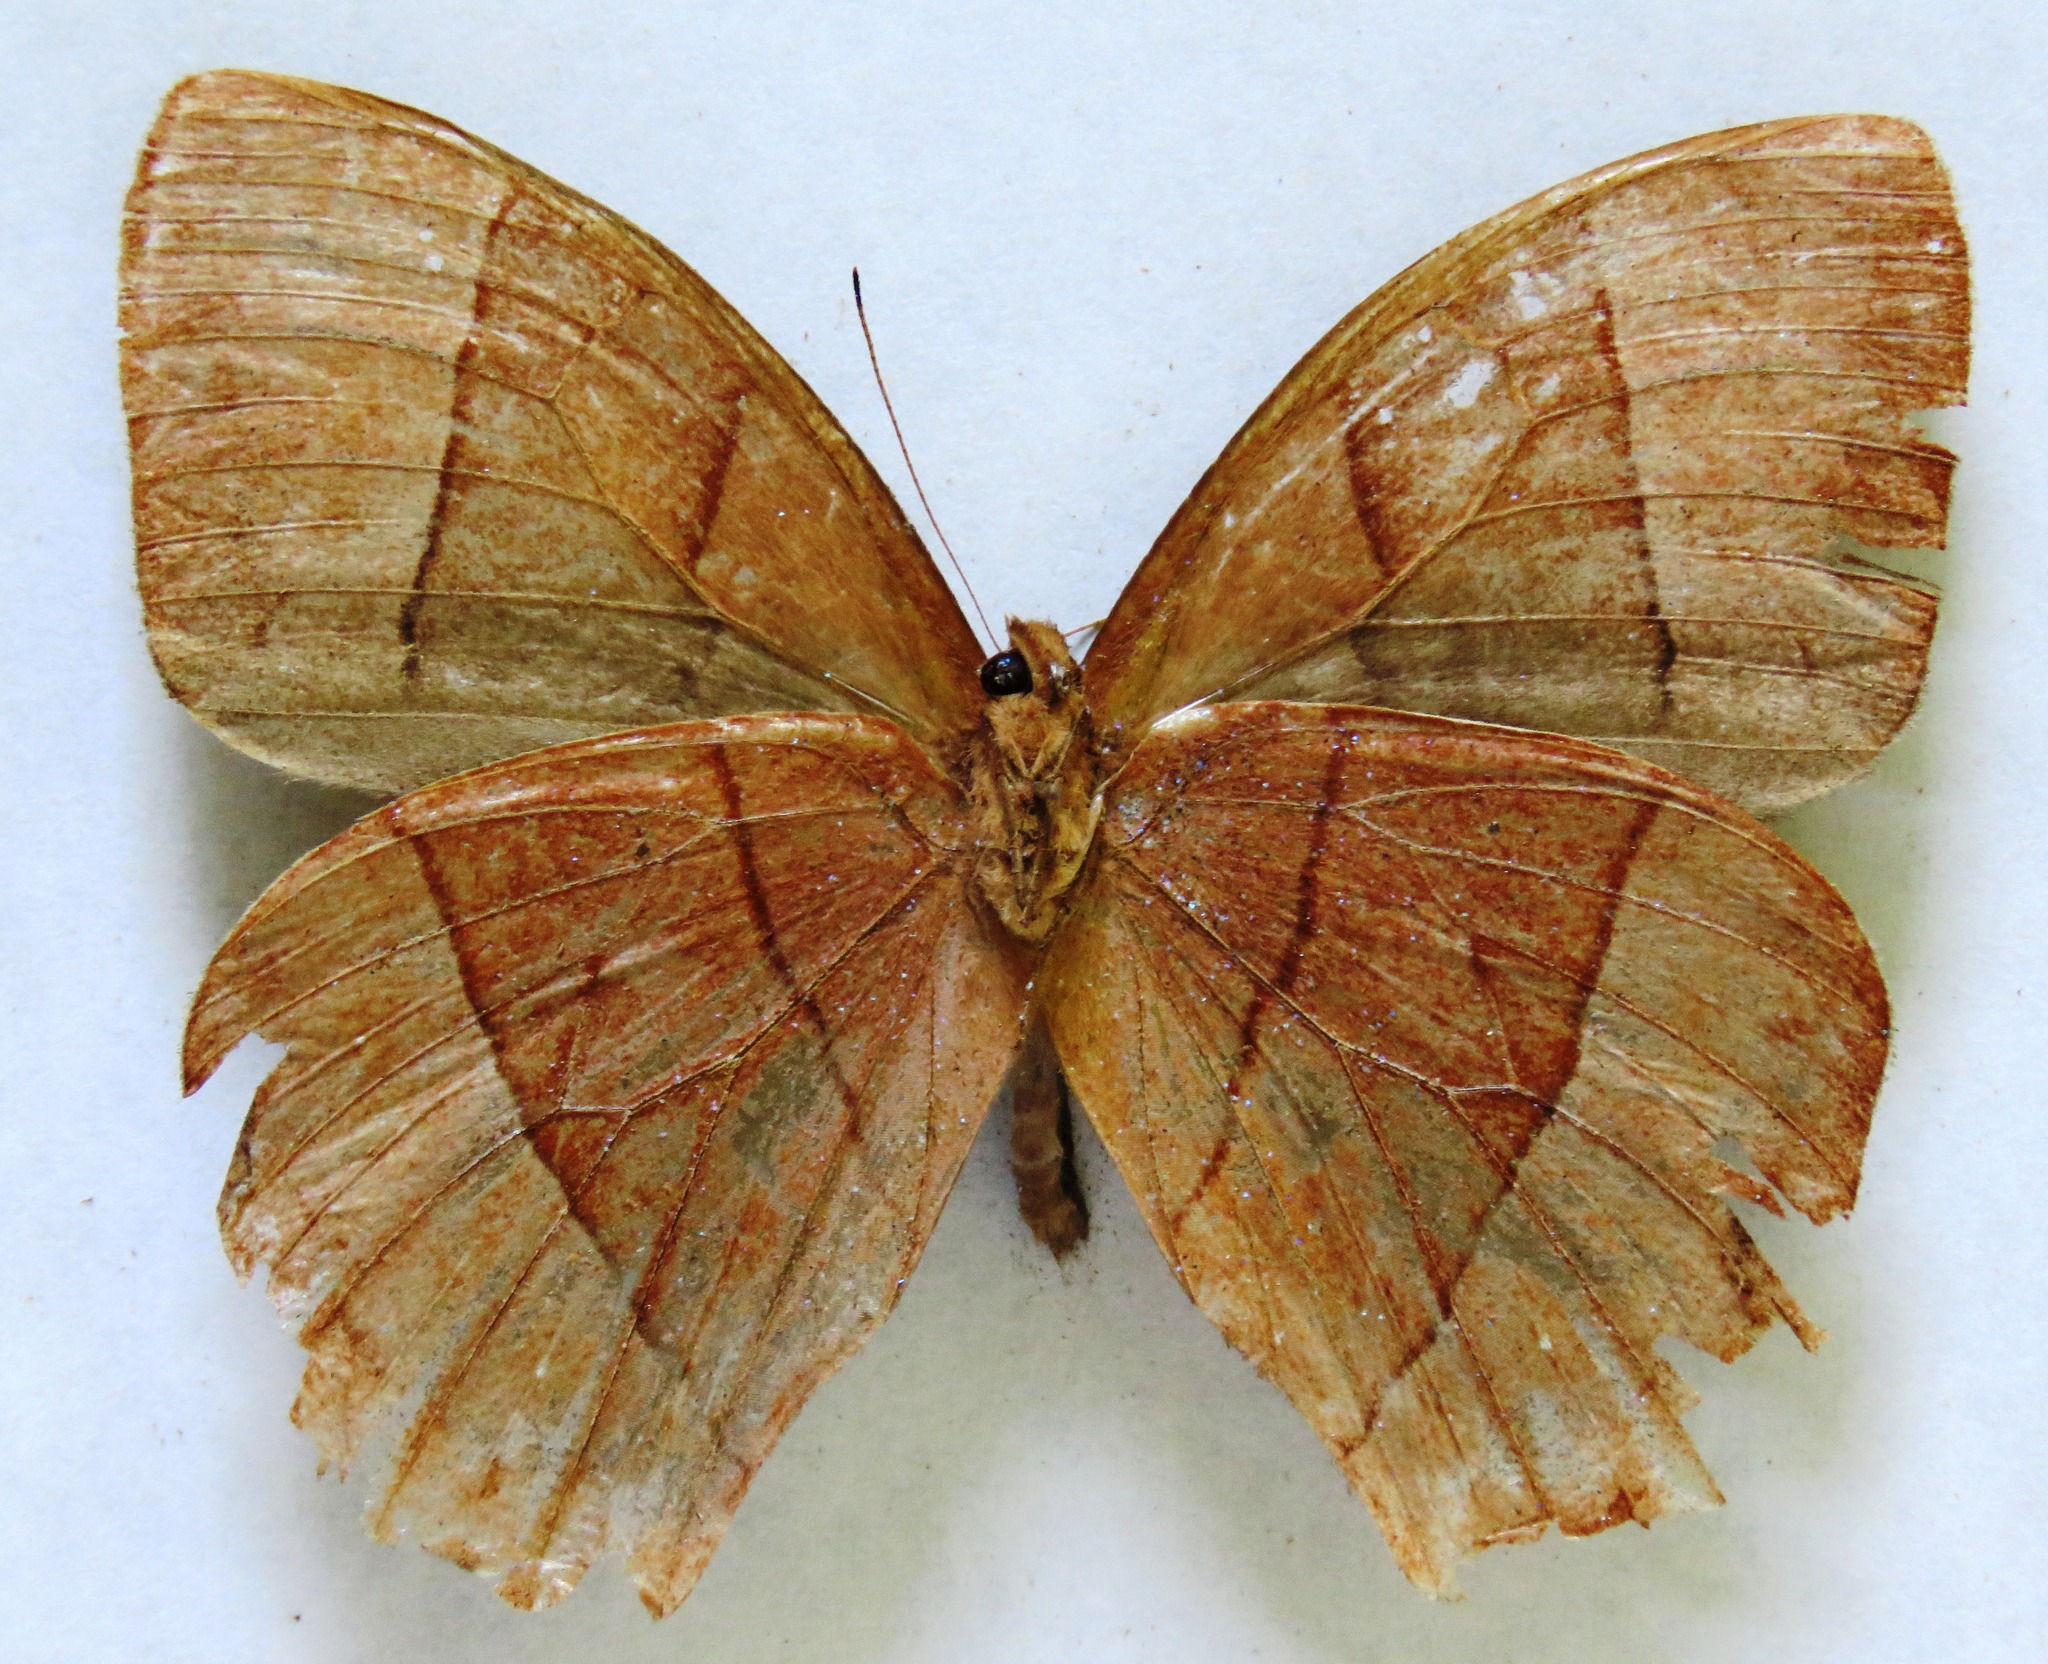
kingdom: Animalia
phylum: Arthropoda
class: Insecta
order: Lepidoptera
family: Nymphalidae
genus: Taygetis
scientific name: Taygetis virgilia
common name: Stub-tailed satyr
